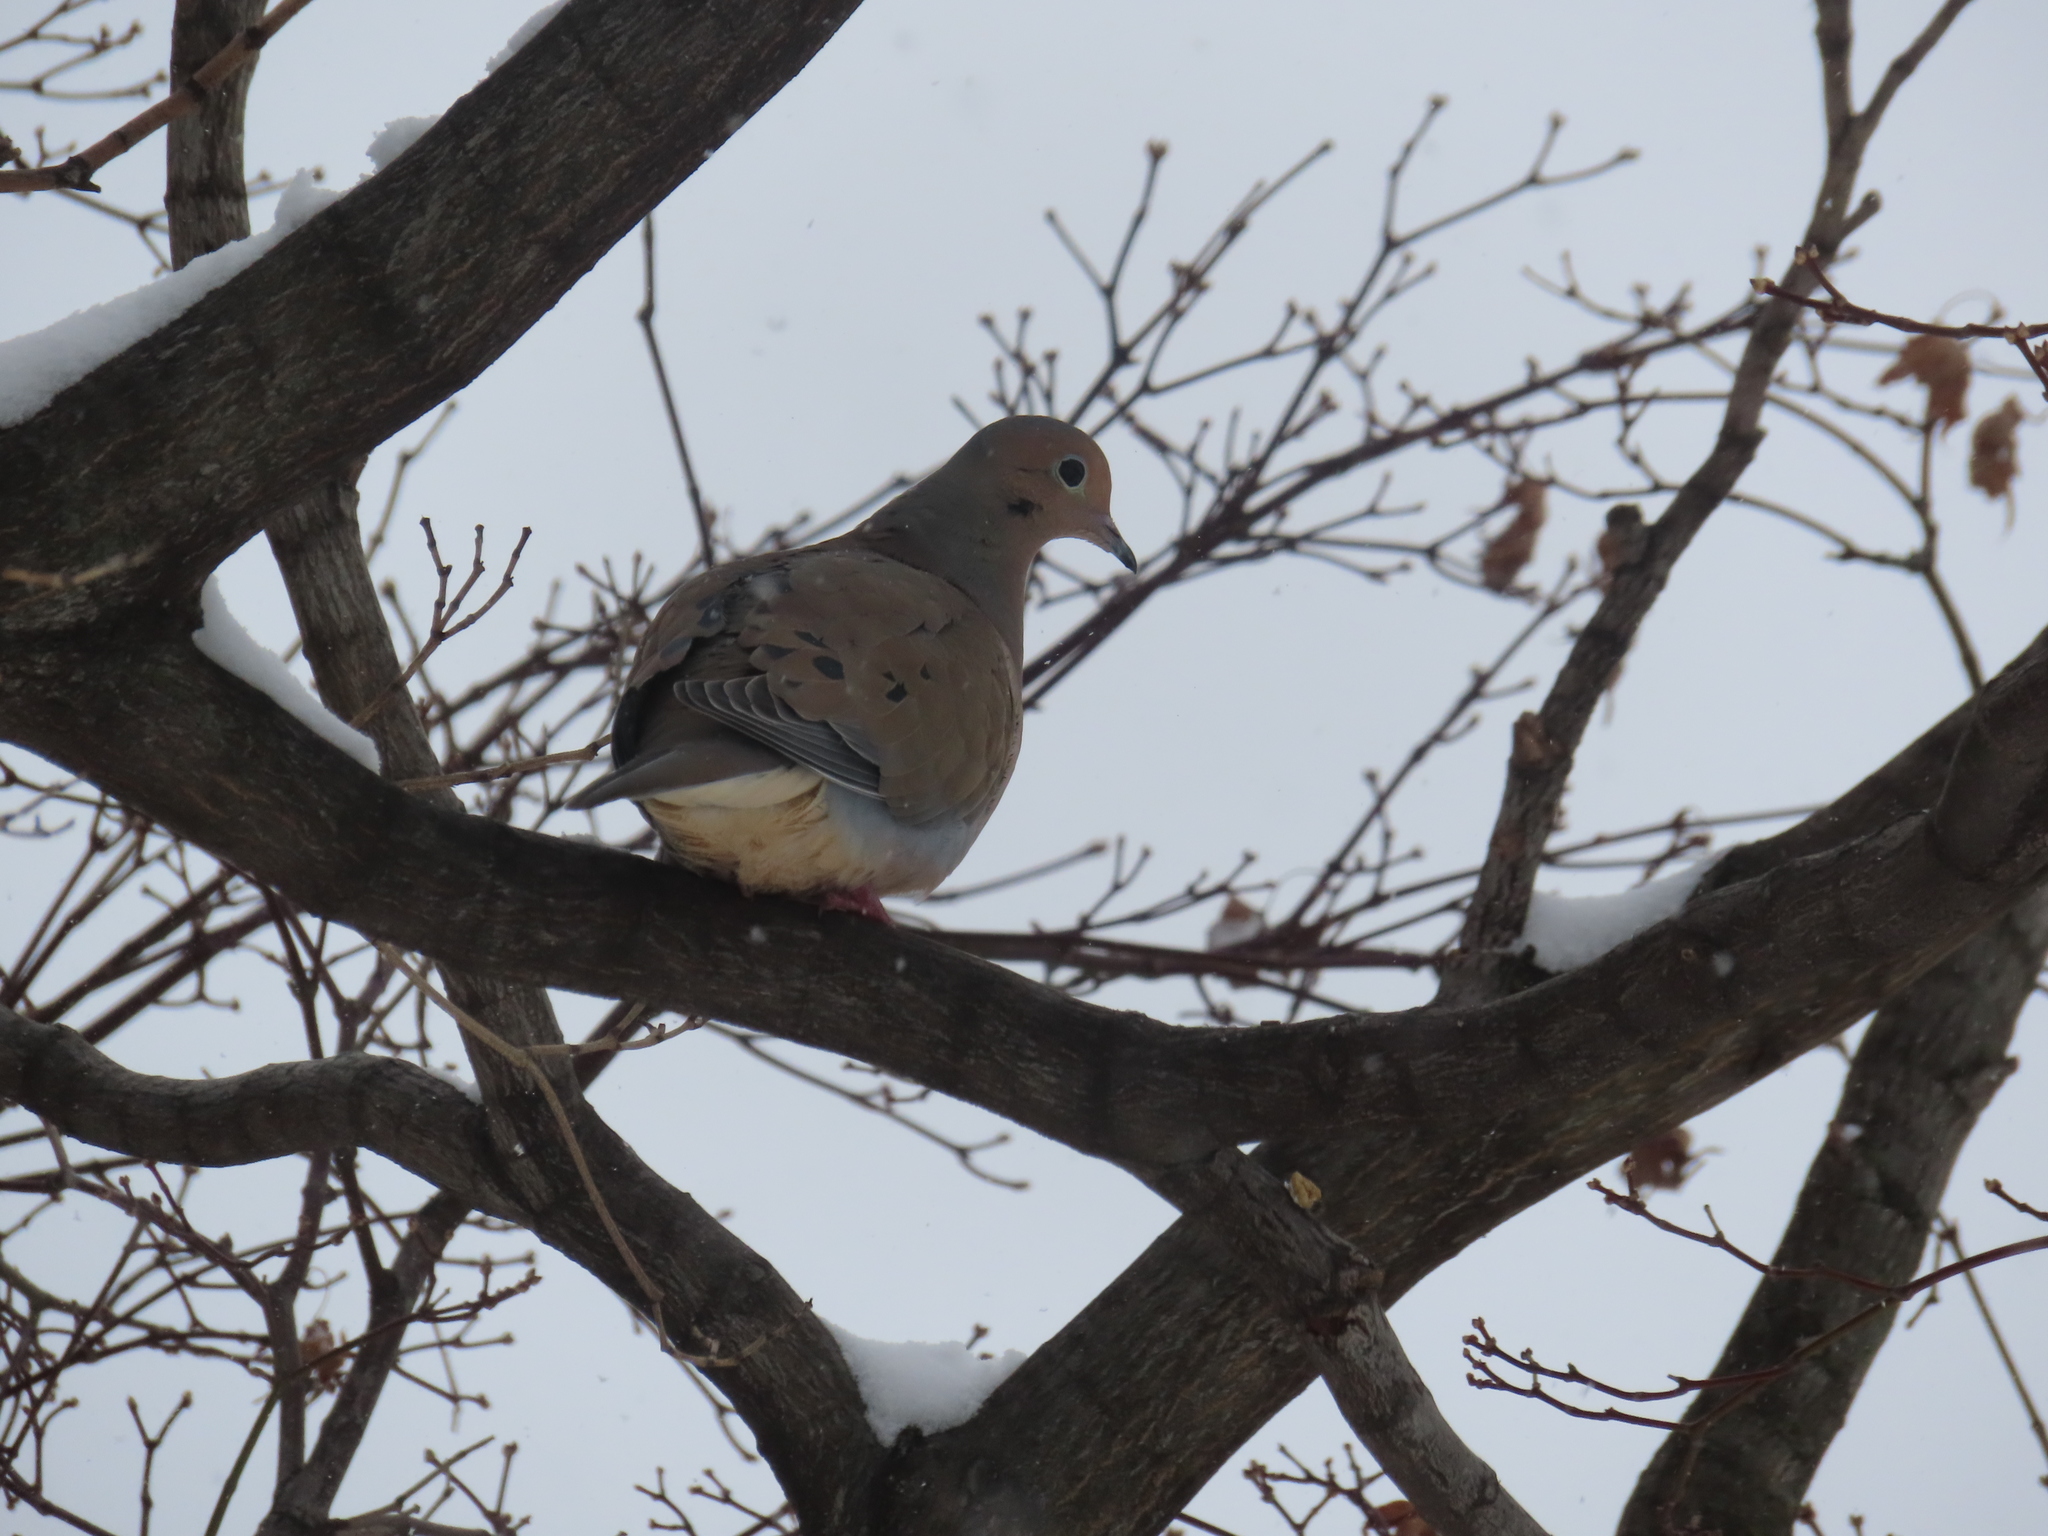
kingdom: Animalia
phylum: Chordata
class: Aves
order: Columbiformes
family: Columbidae
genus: Zenaida
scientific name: Zenaida macroura
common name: Mourning dove
